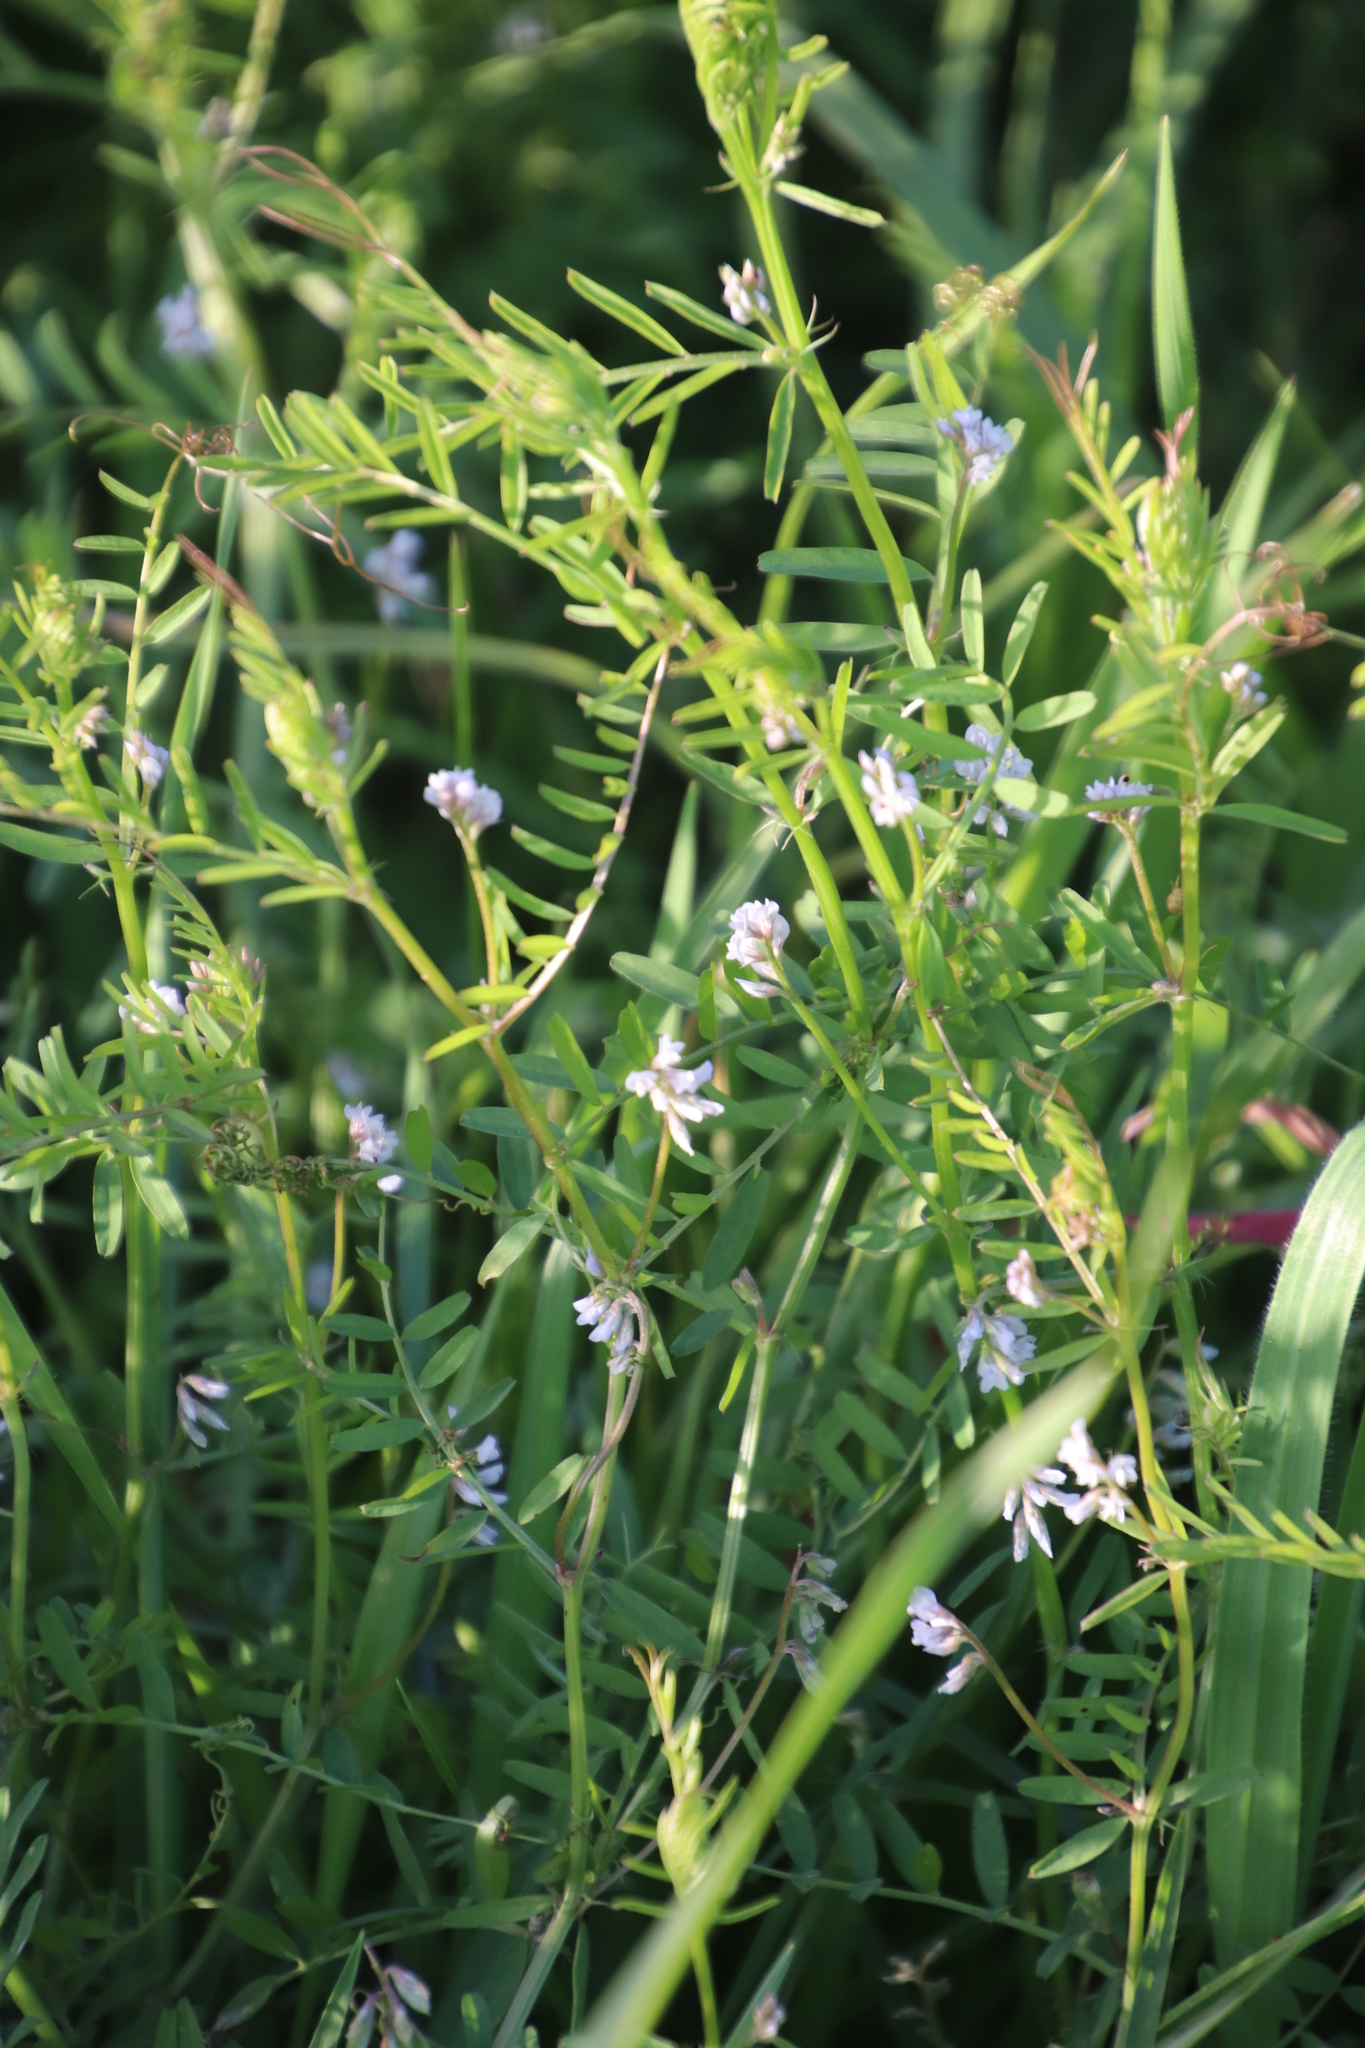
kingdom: Plantae
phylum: Tracheophyta
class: Magnoliopsida
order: Fabales
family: Fabaceae
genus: Vicia
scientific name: Vicia hirsuta
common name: Tiny vetch
